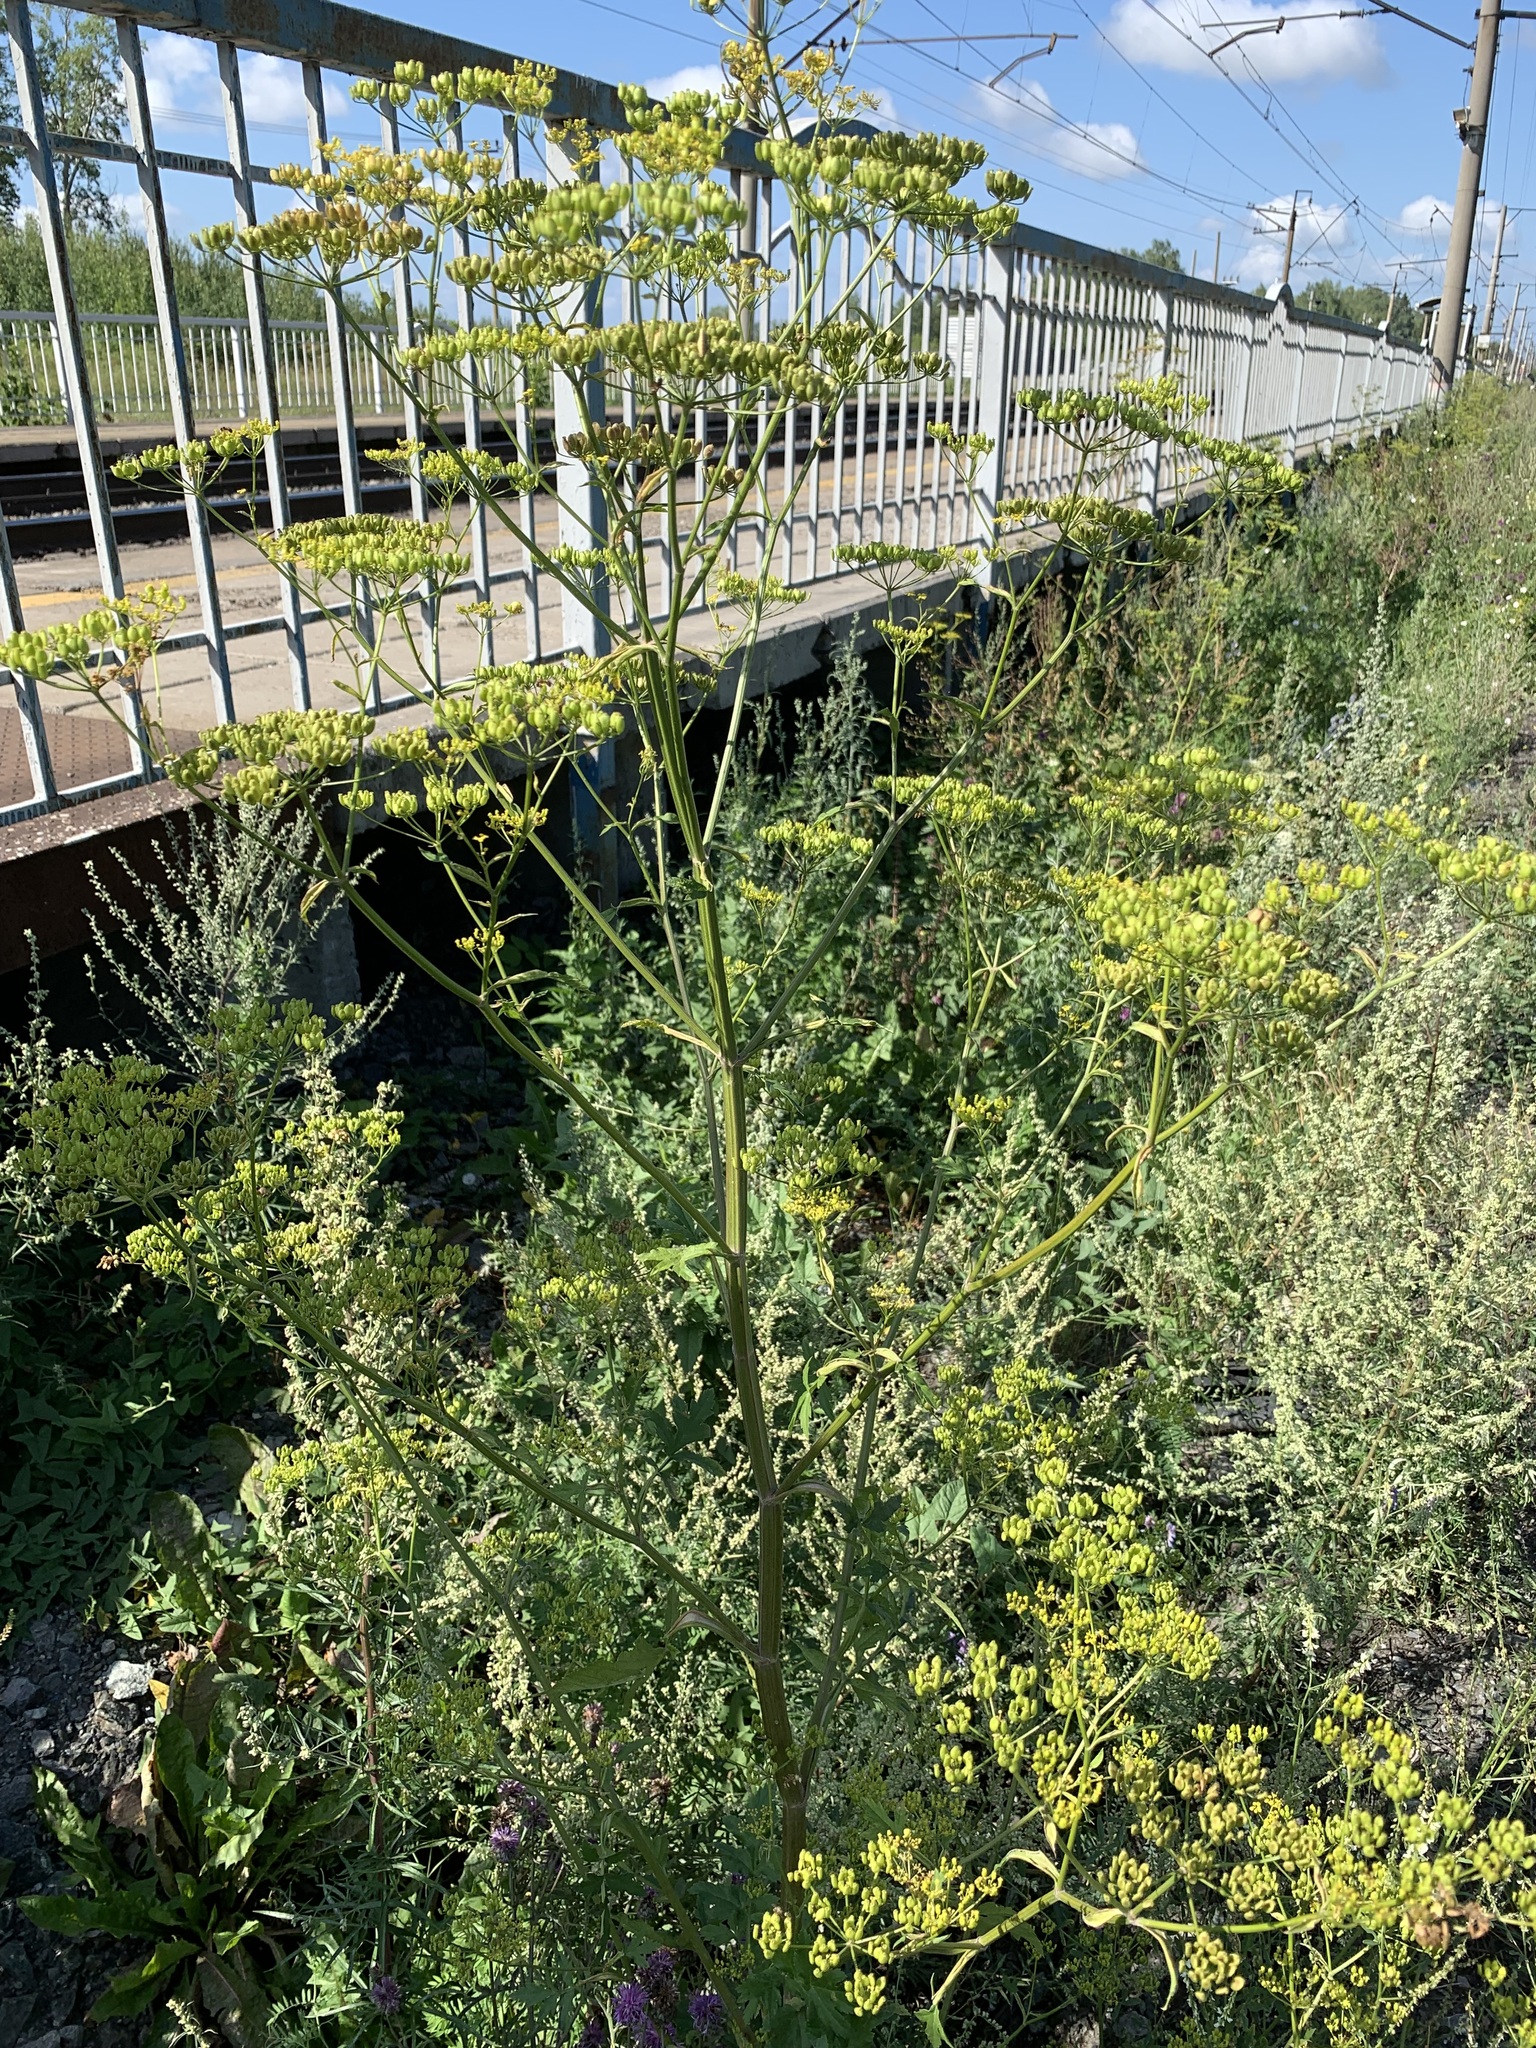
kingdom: Plantae
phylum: Tracheophyta
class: Magnoliopsida
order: Apiales
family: Apiaceae
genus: Pastinaca
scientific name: Pastinaca sativa
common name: Wild parsnip
